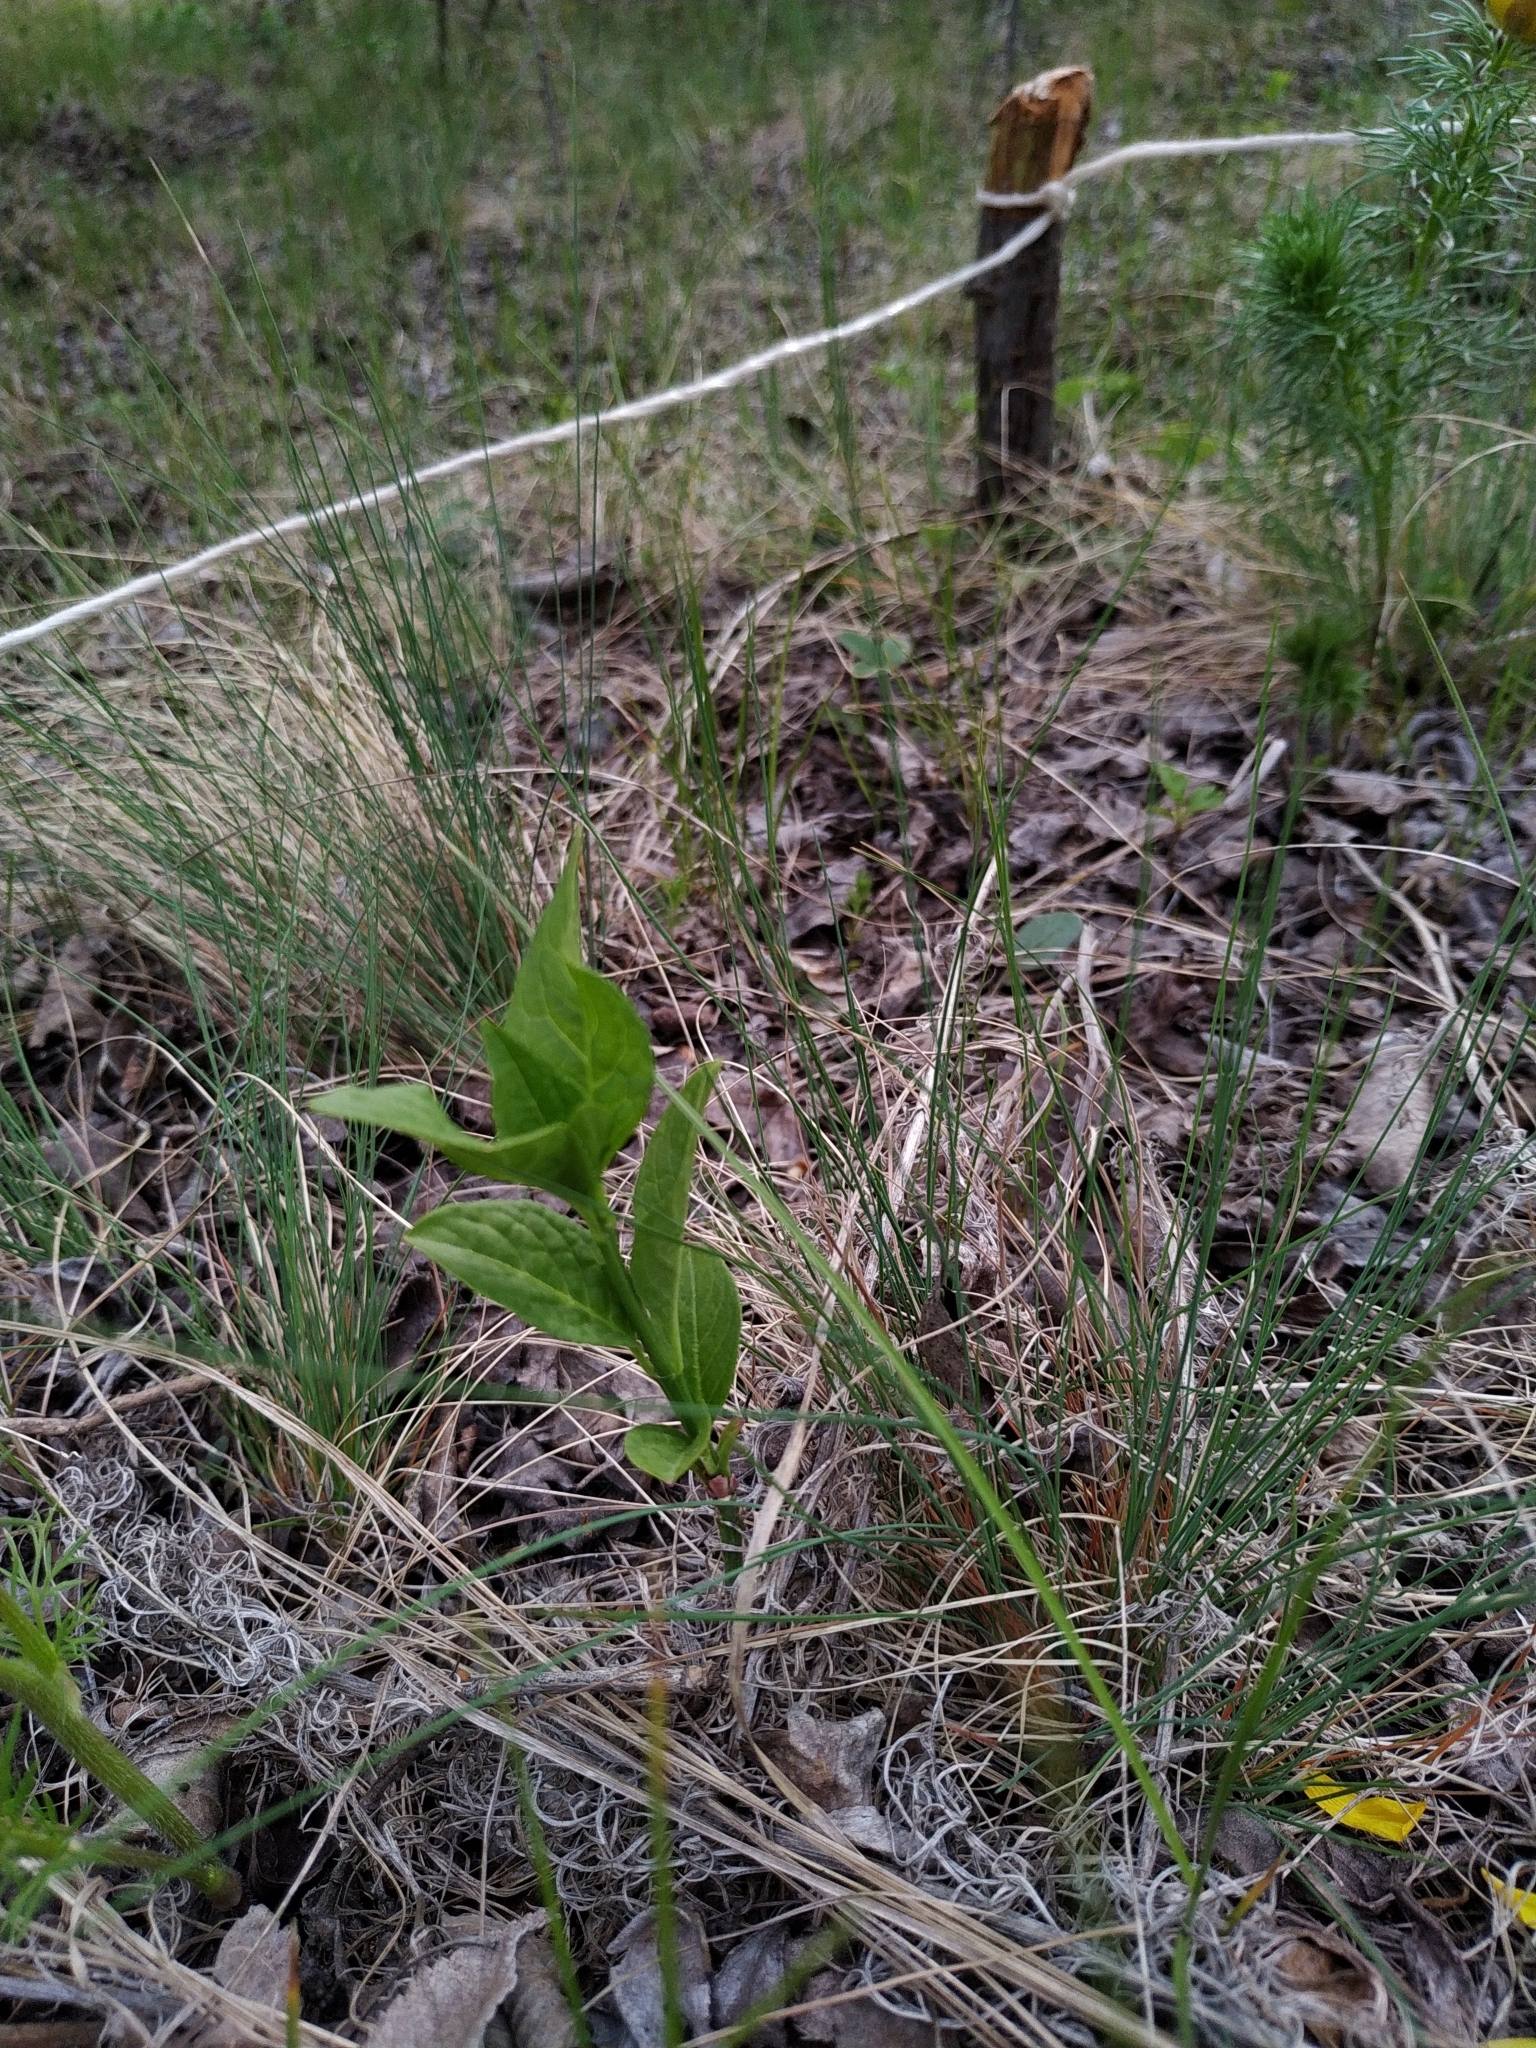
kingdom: Plantae
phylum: Tracheophyta
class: Magnoliopsida
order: Celastrales
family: Celastraceae
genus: Euonymus
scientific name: Euonymus europaeus
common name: Spindle
